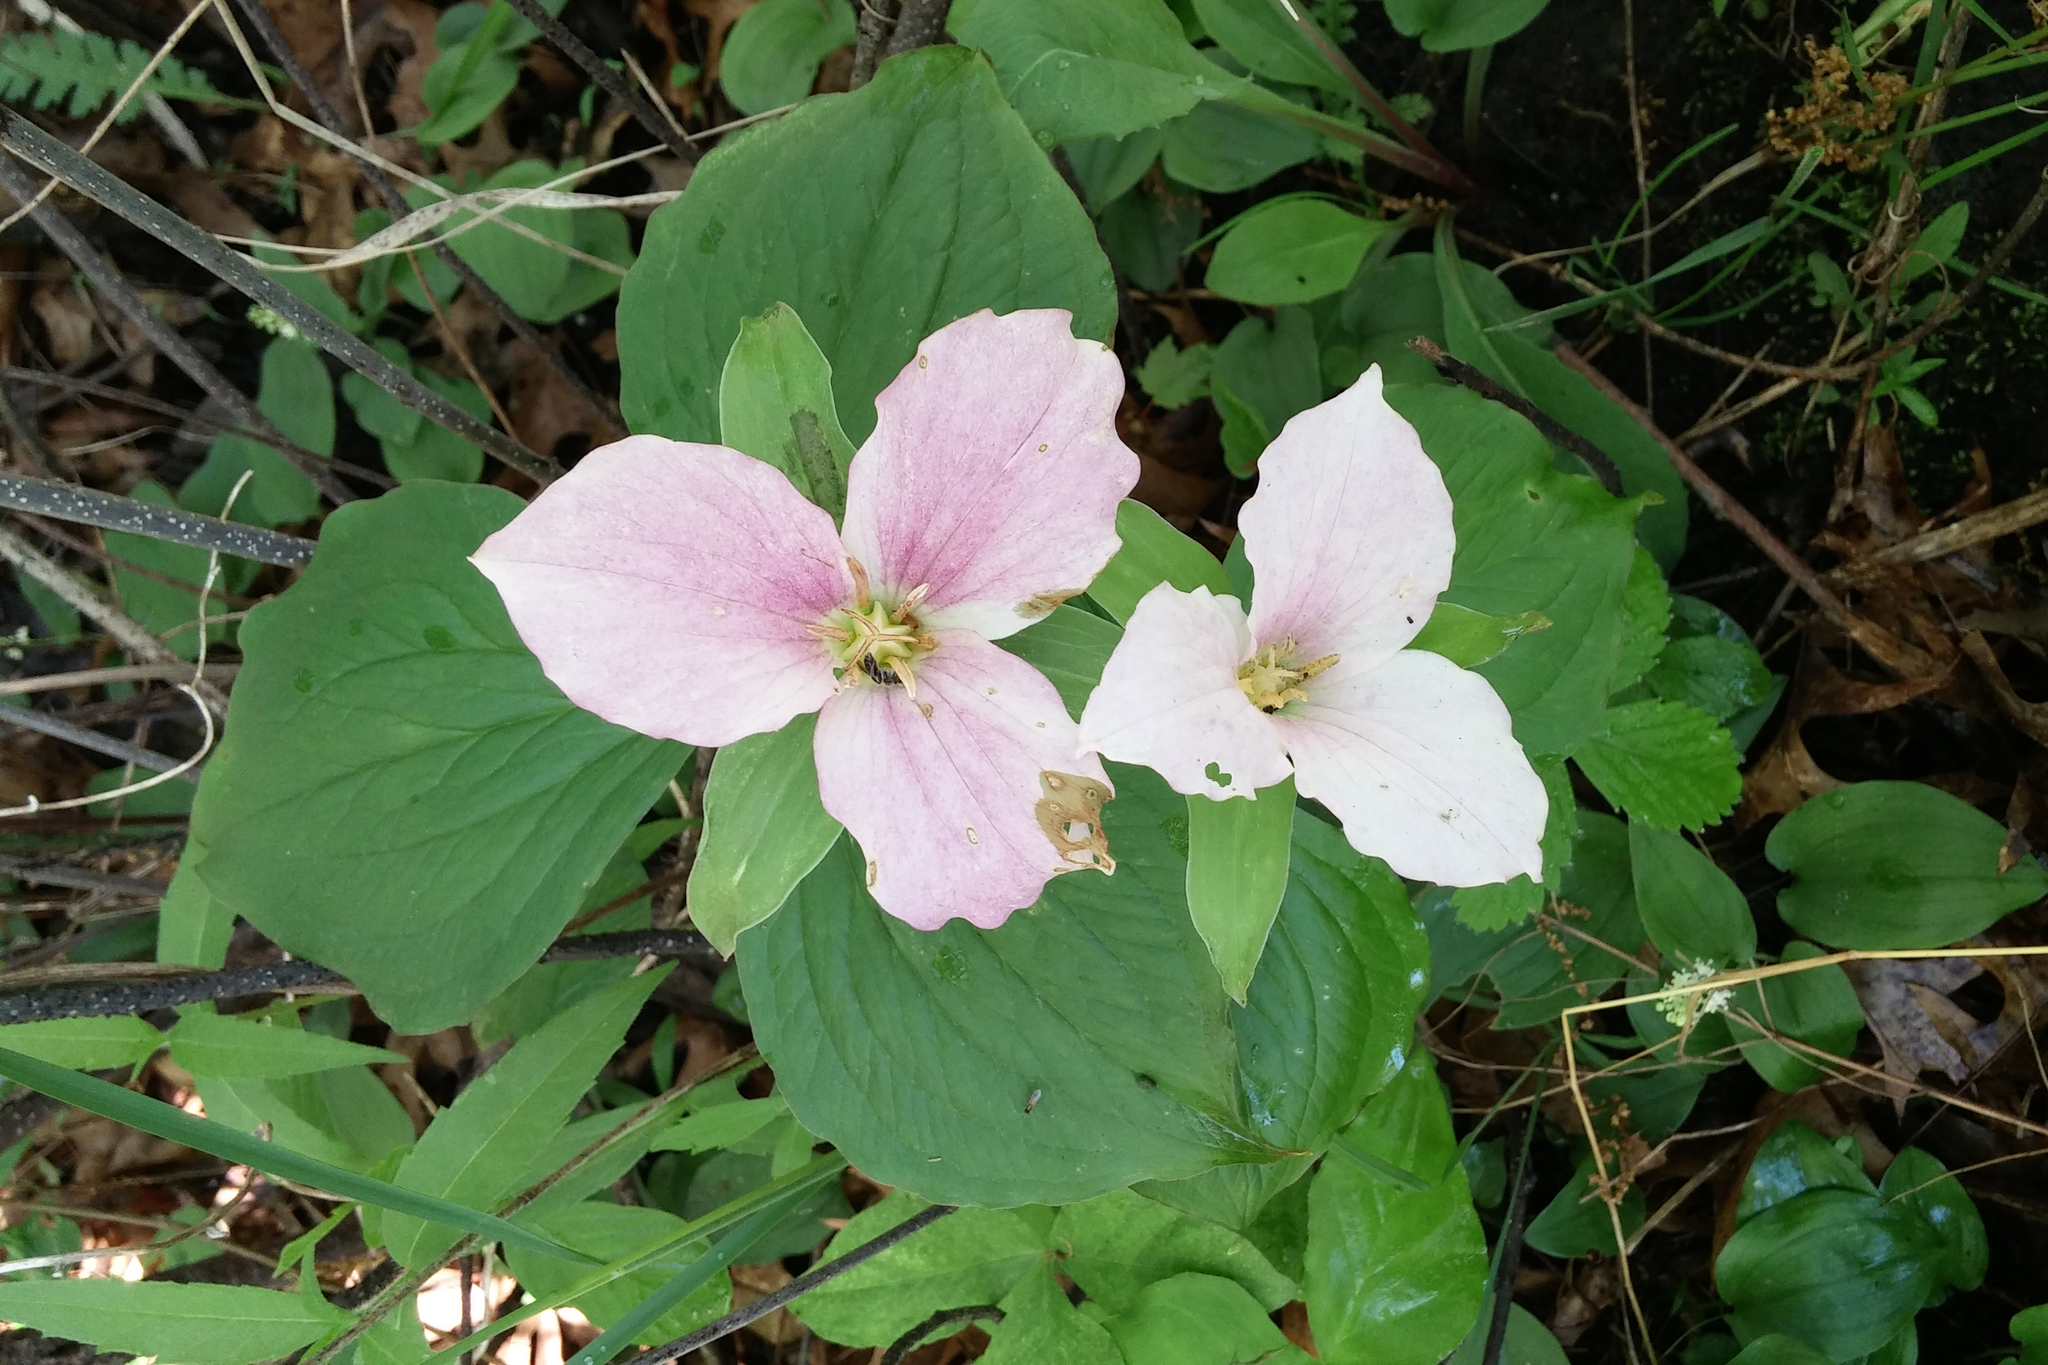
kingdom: Plantae
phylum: Tracheophyta
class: Liliopsida
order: Liliales
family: Melanthiaceae
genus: Trillium
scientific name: Trillium grandiflorum
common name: Great white trillium
